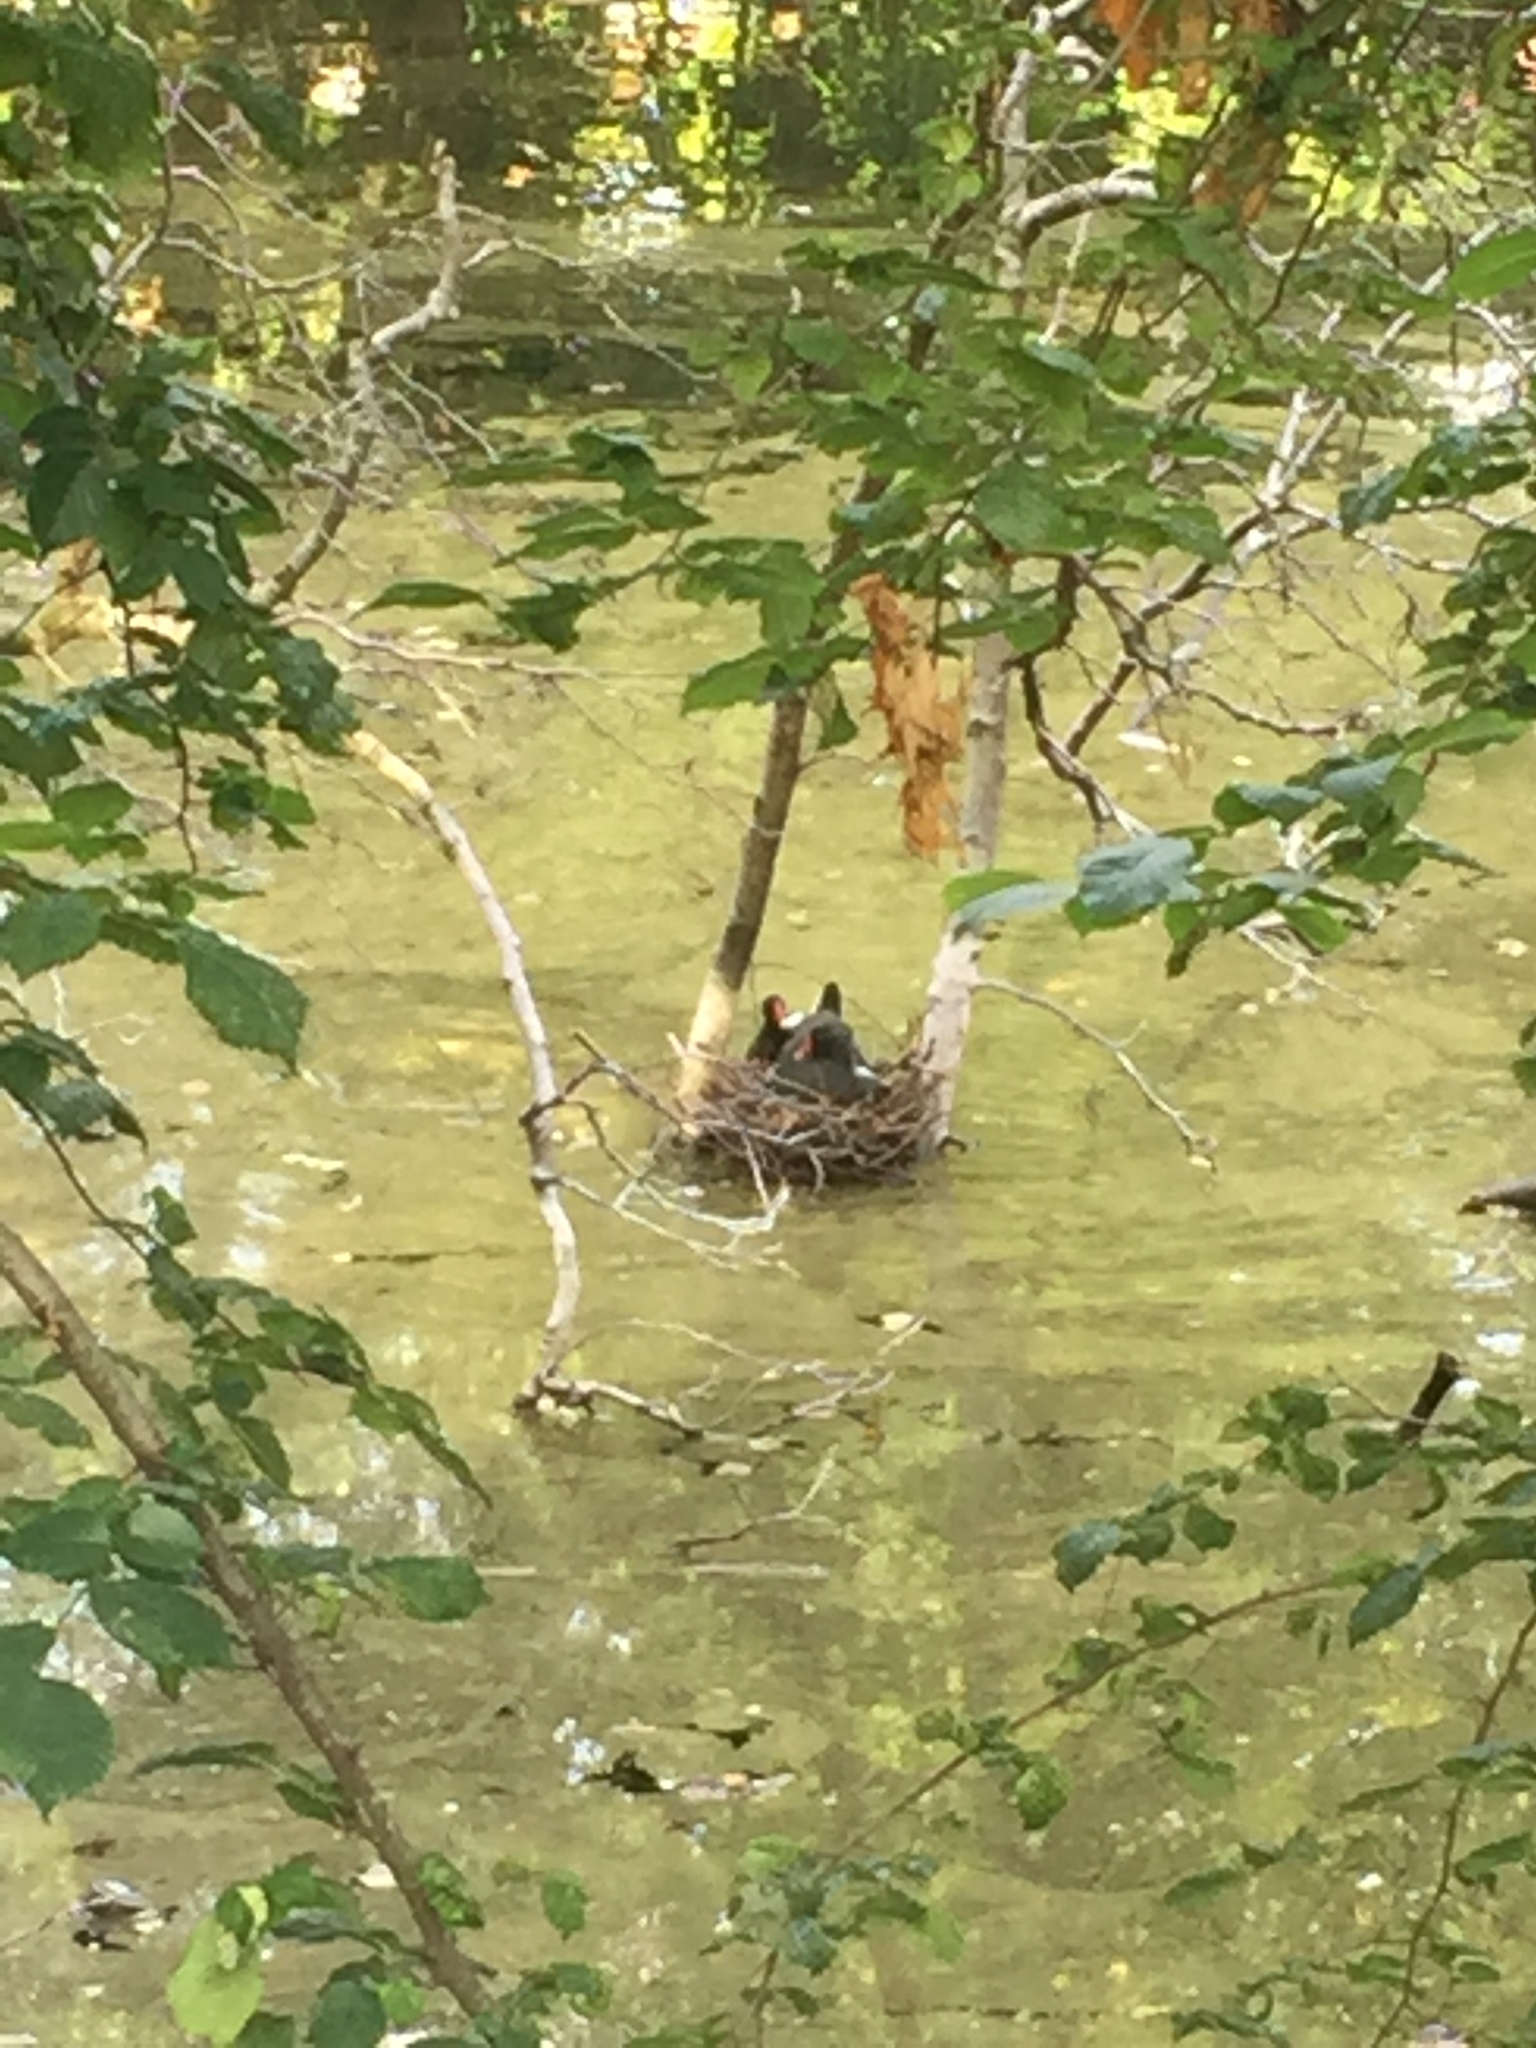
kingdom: Animalia
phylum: Chordata
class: Aves
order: Gruiformes
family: Rallidae
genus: Gallinula
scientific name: Gallinula chloropus
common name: Common moorhen
